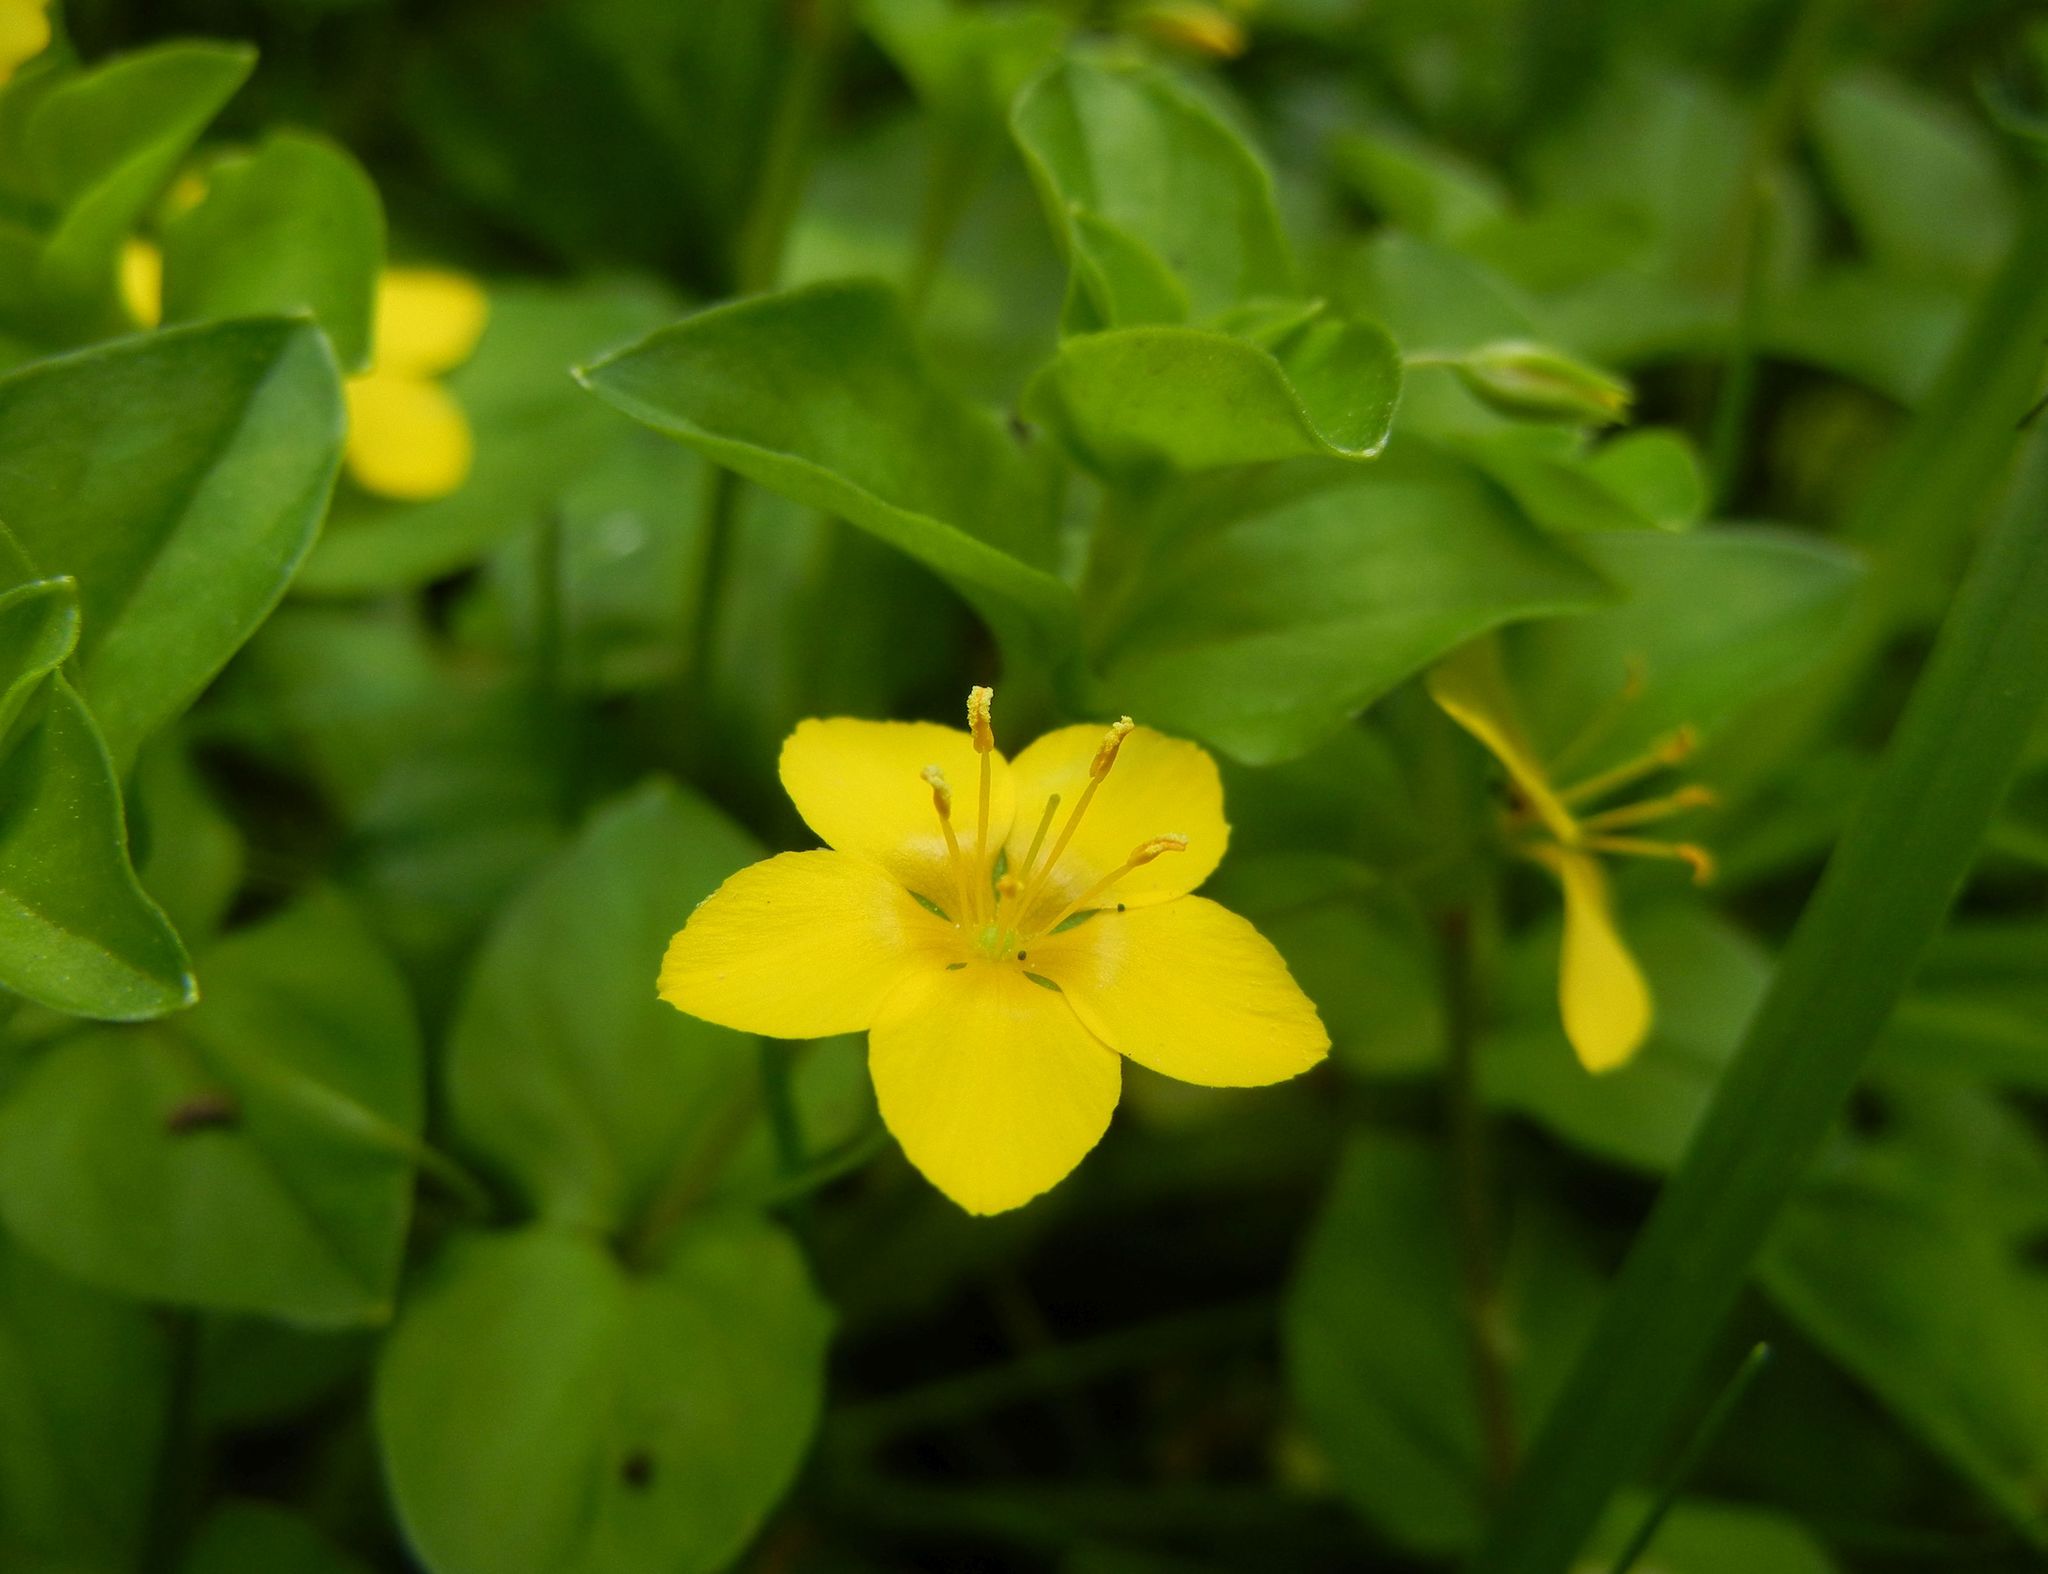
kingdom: Plantae
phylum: Tracheophyta
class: Magnoliopsida
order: Ericales
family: Primulaceae
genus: Lysimachia
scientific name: Lysimachia nemorum
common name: Yellow pimpernel
